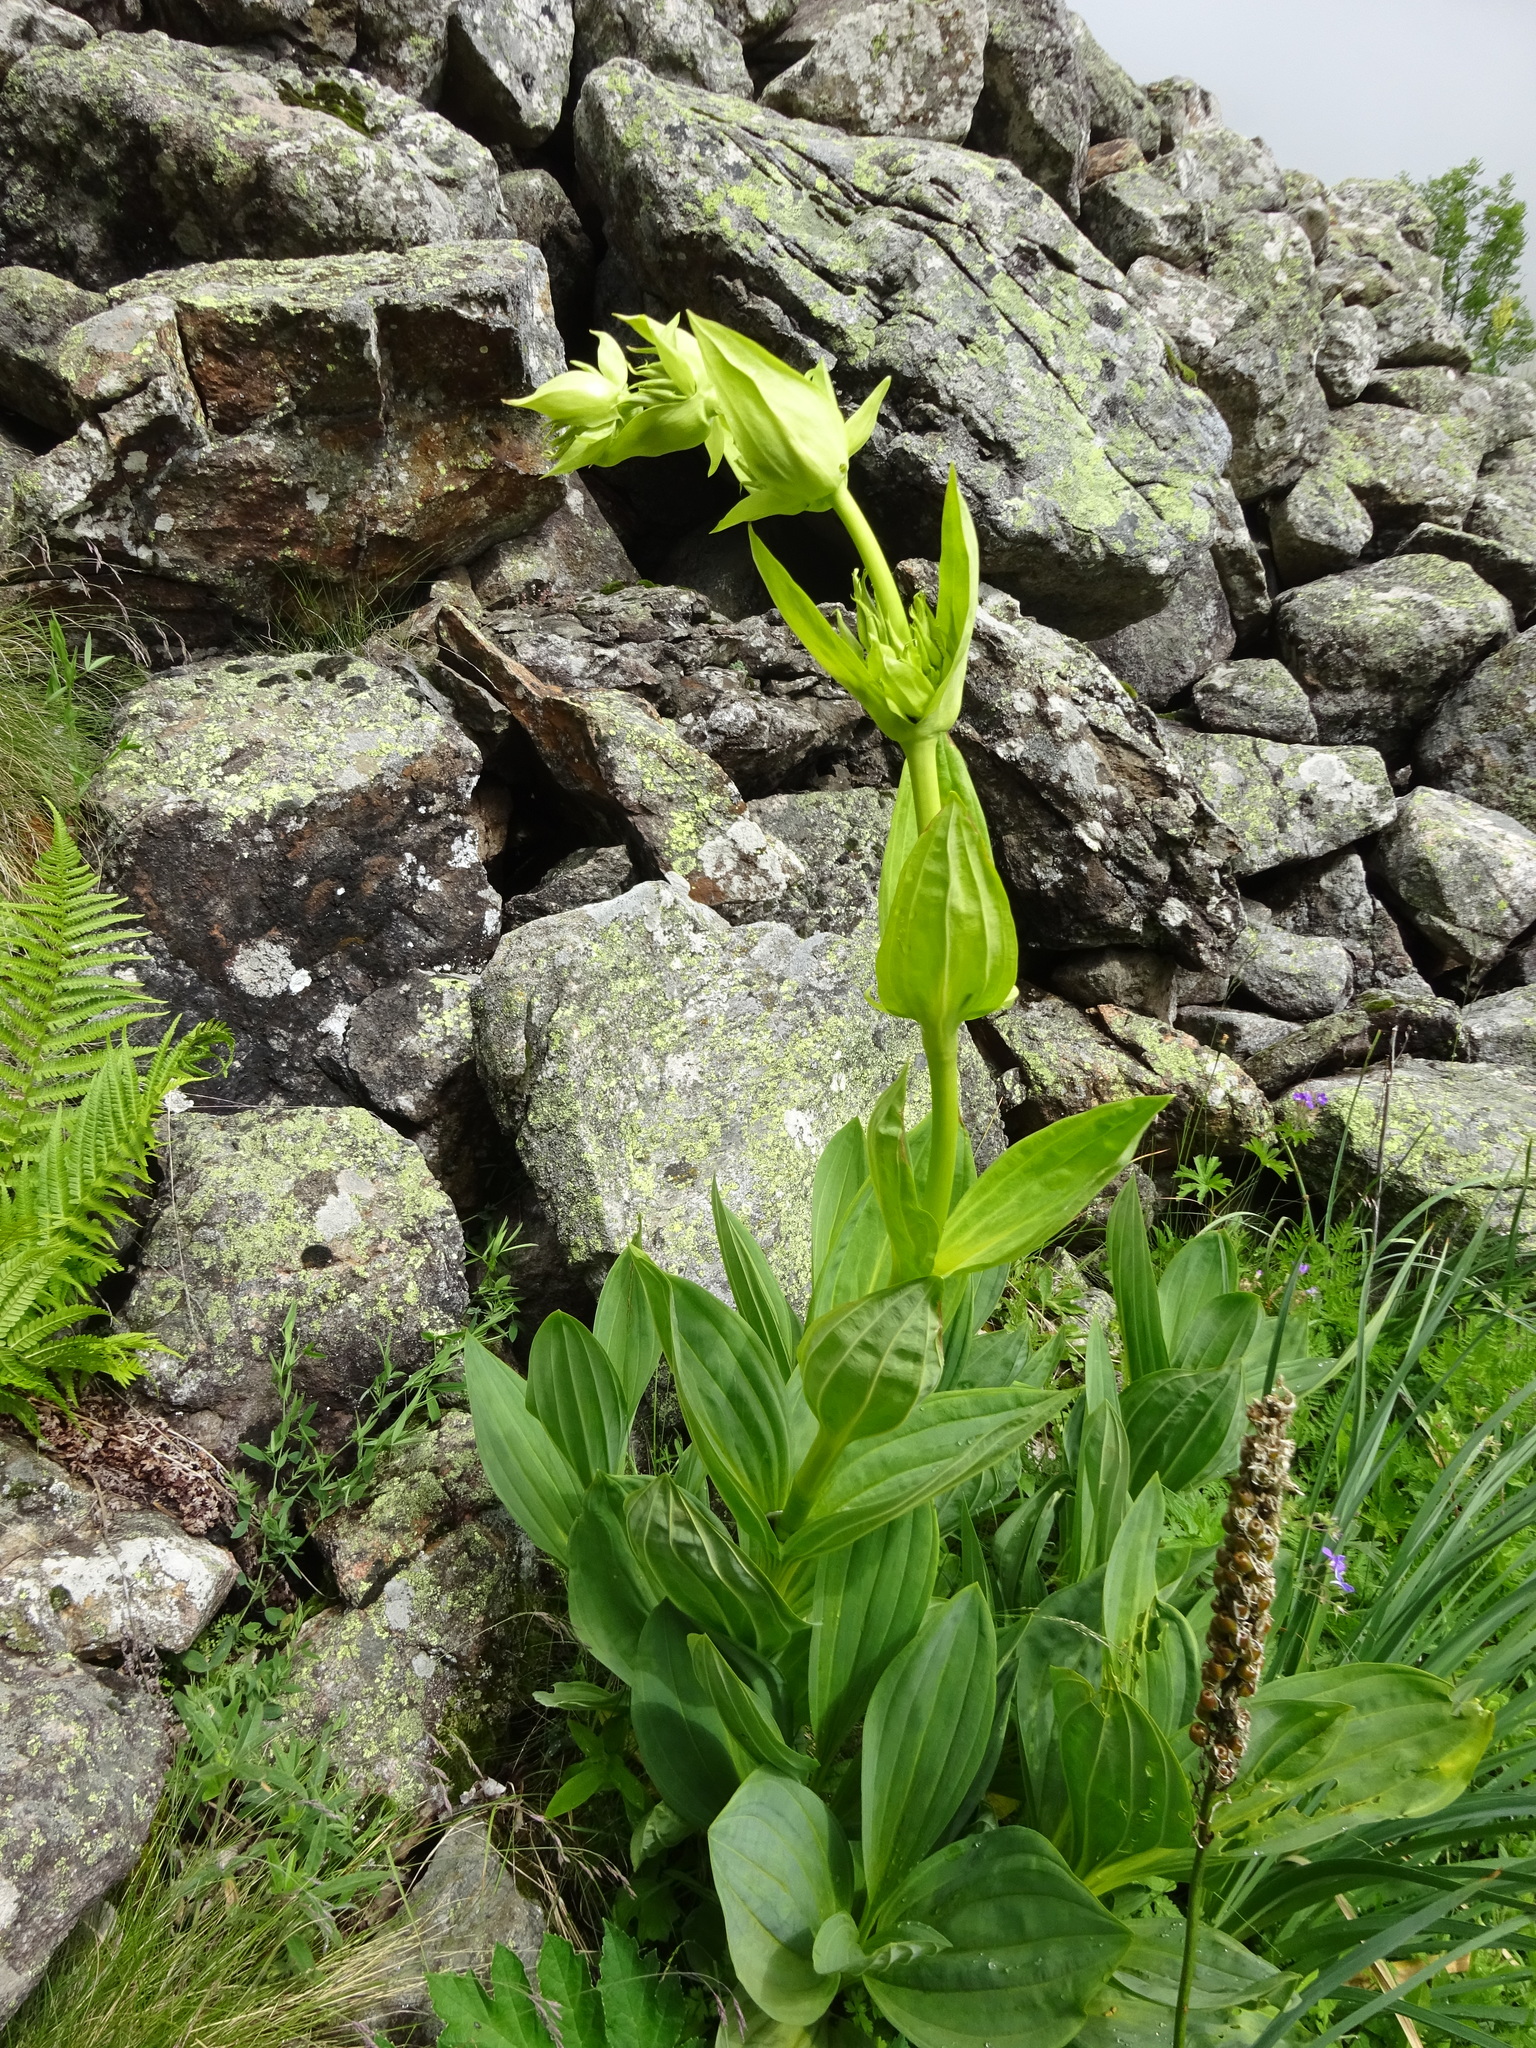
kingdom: Plantae
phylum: Tracheophyta
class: Magnoliopsida
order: Gentianales
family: Gentianaceae
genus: Gentiana
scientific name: Gentiana lutea
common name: Great yellow gentian
